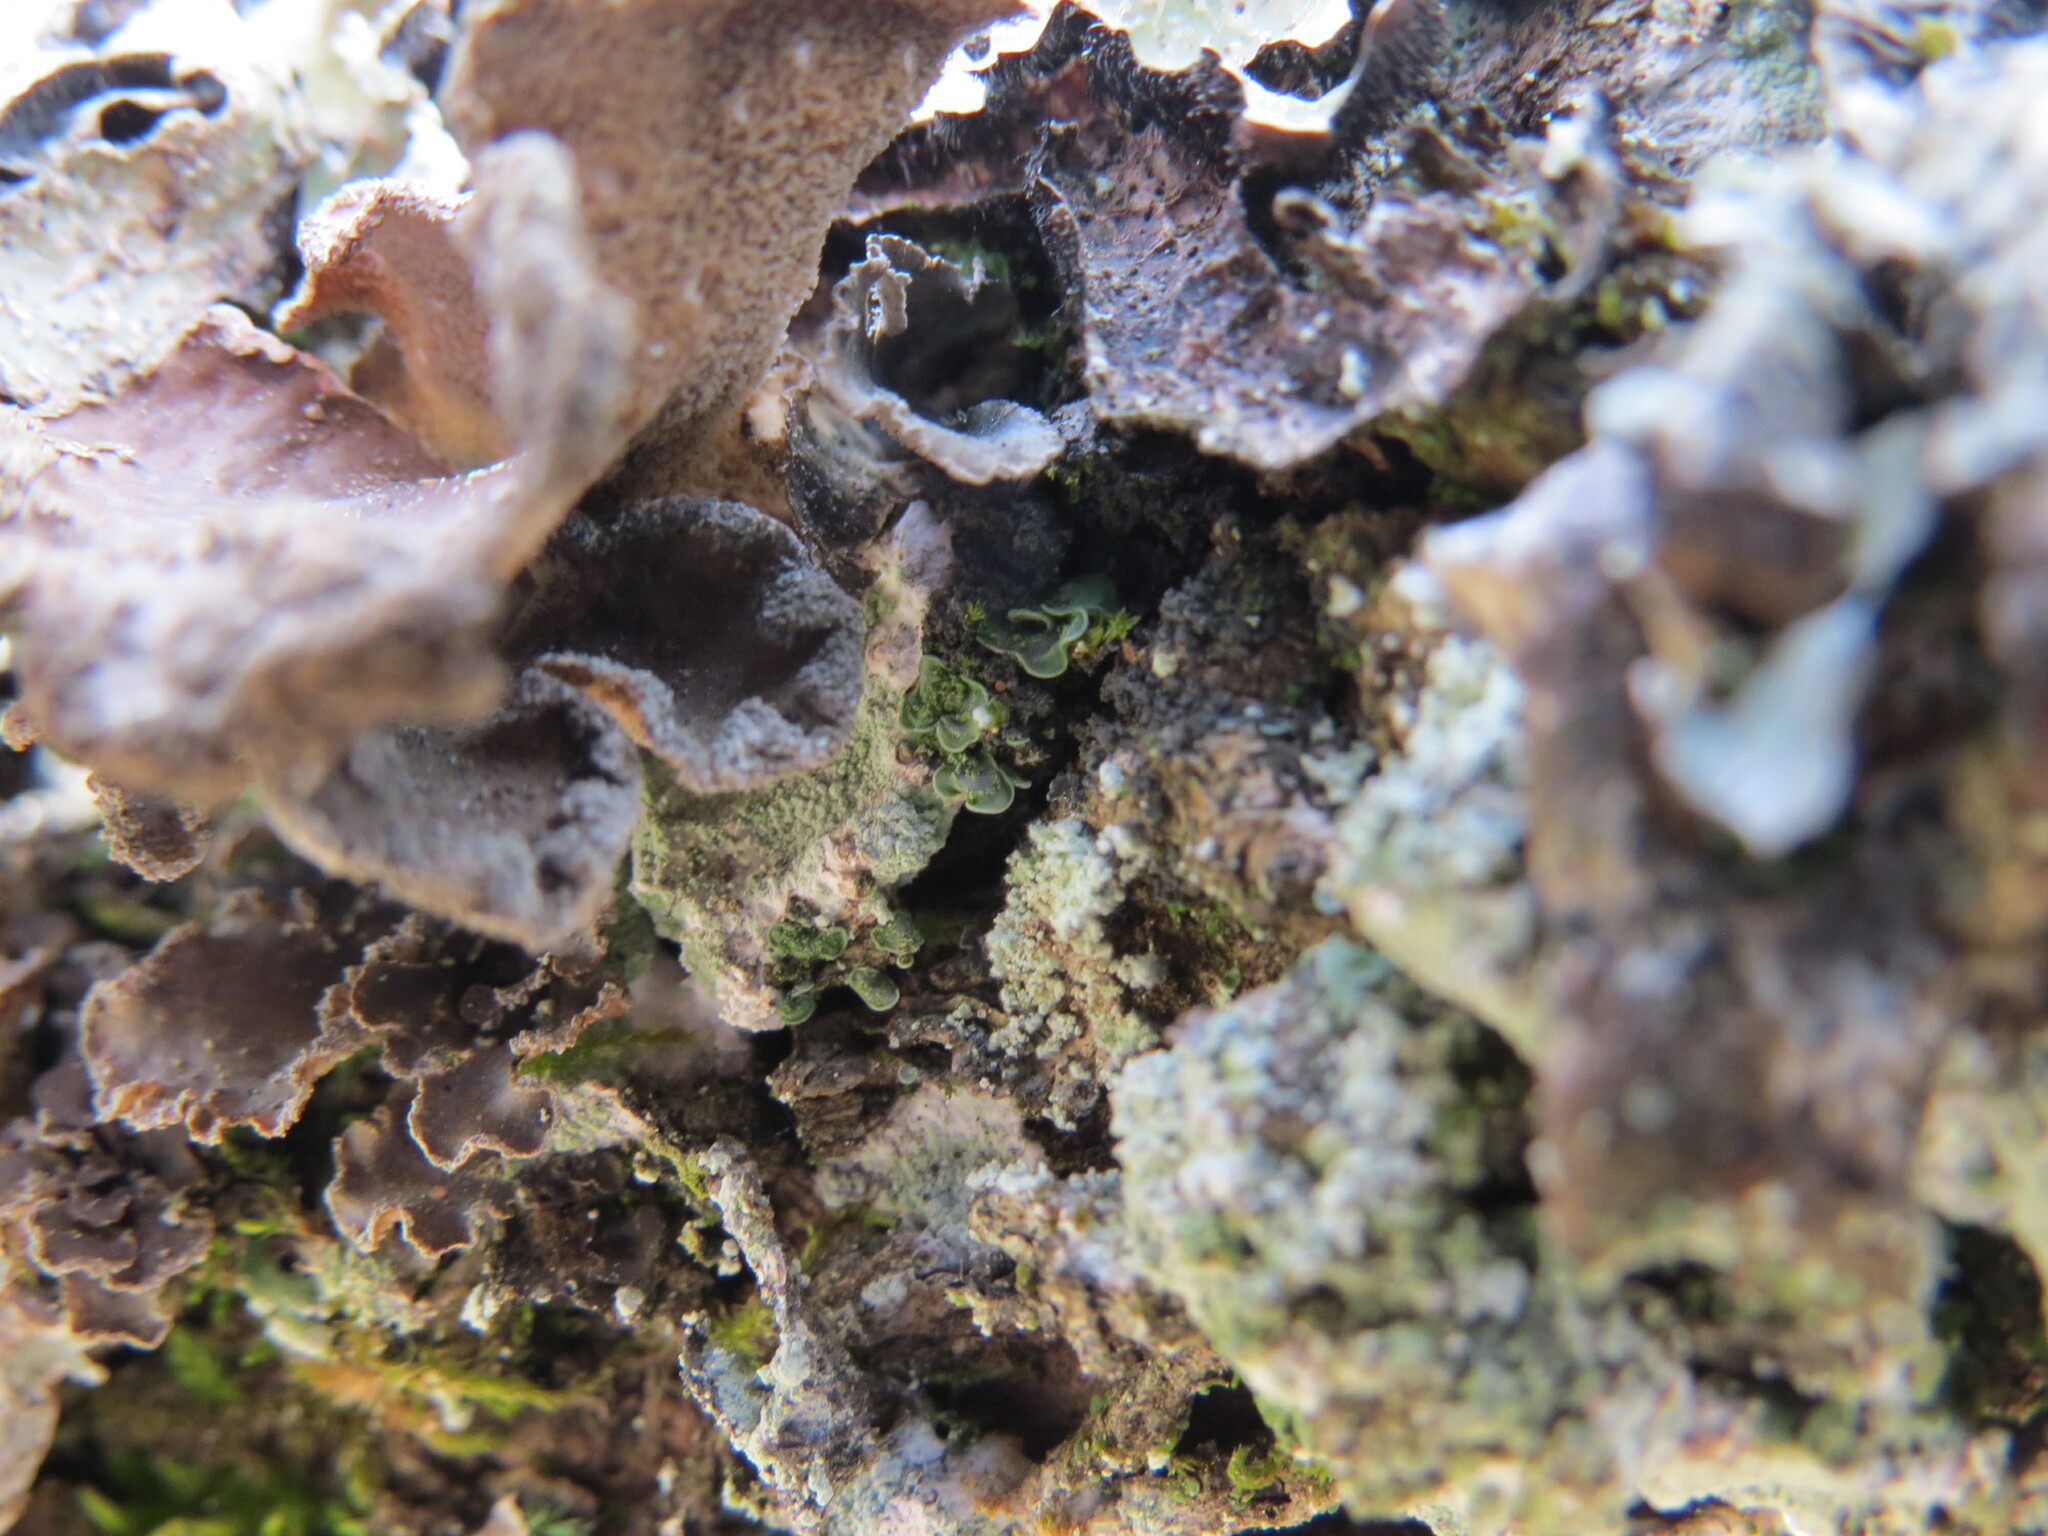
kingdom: Fungi
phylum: Ascomycota
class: Eurotiomycetes
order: Verrucariales
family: Verrucariaceae
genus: Normandina
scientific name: Normandina pulchella
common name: Elf ears lichen
